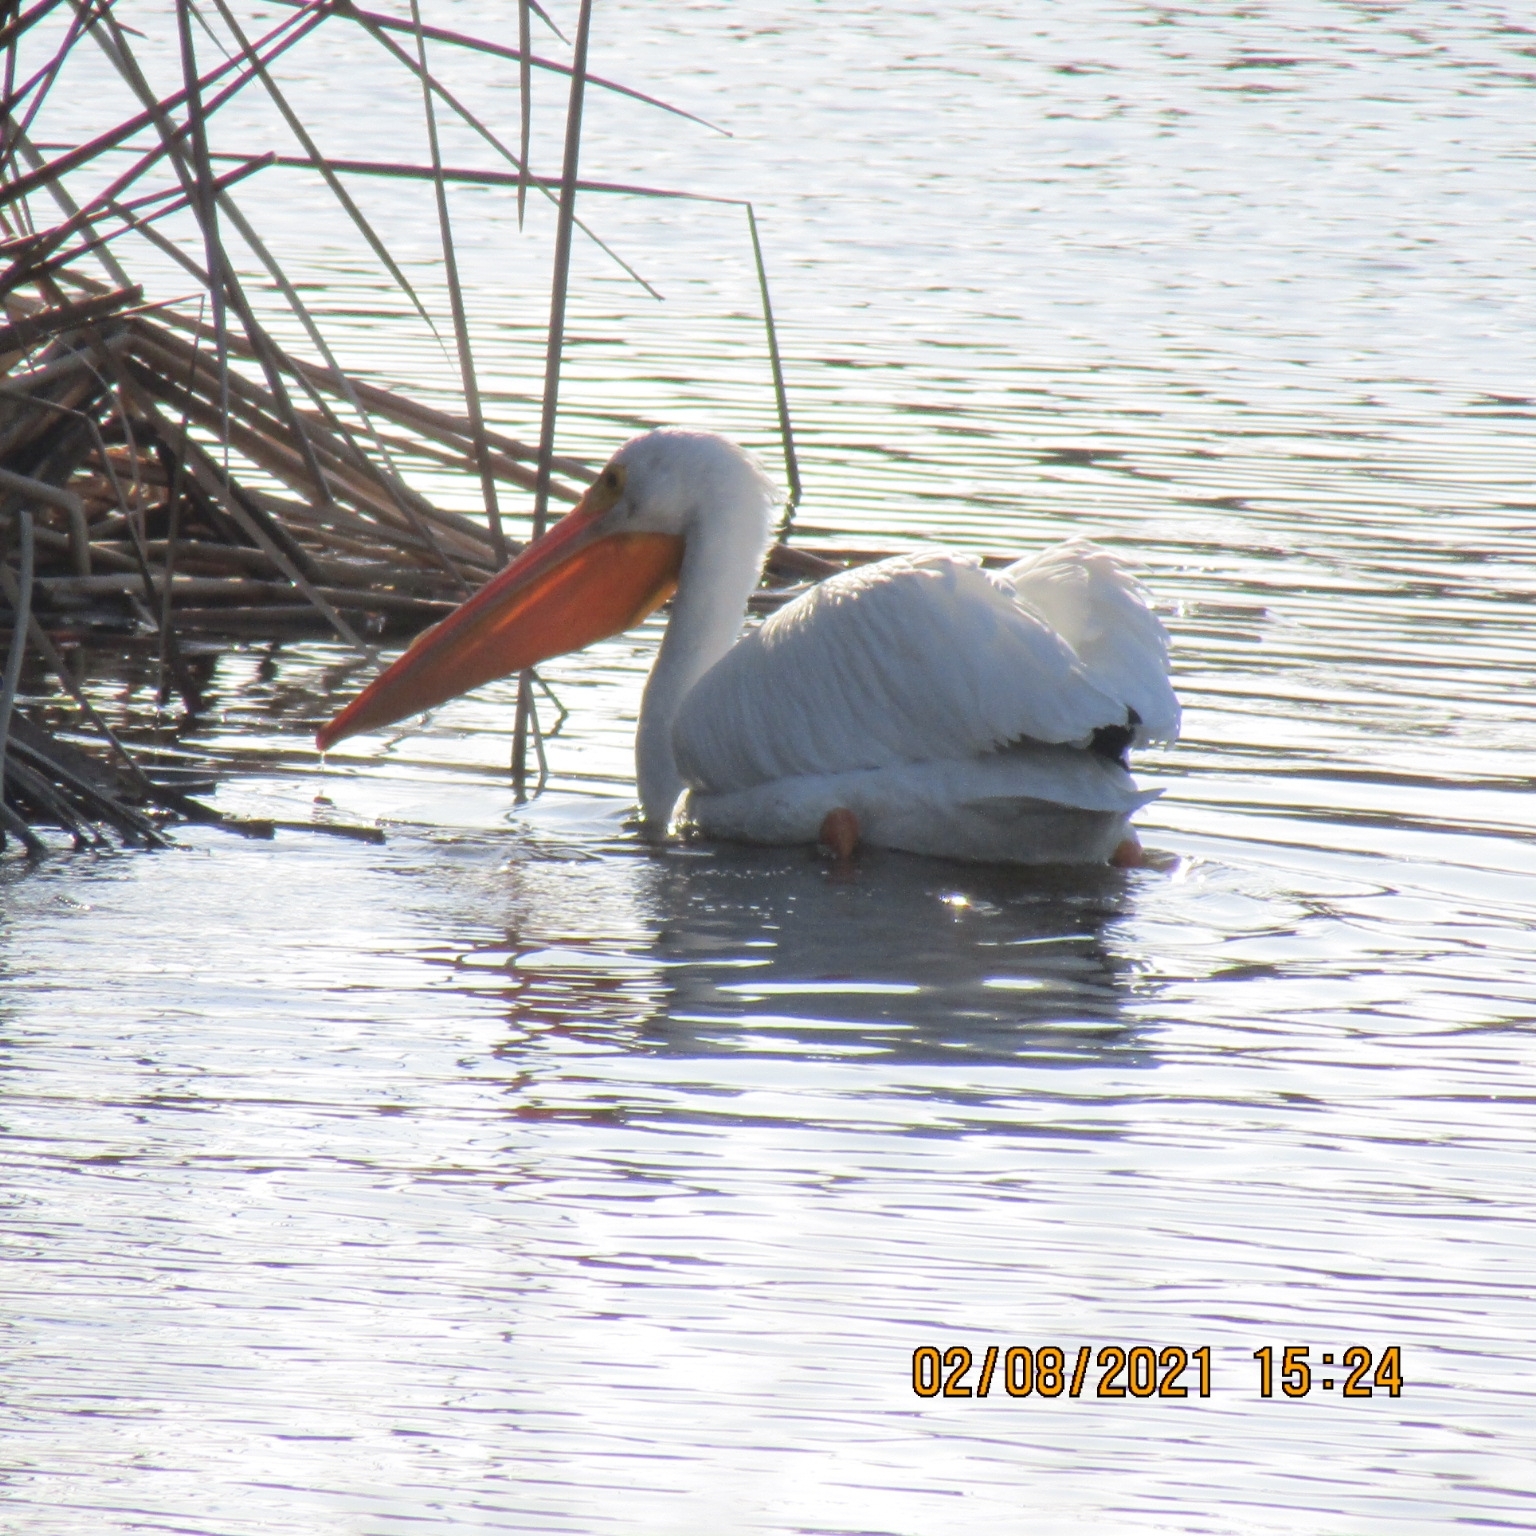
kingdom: Animalia
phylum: Chordata
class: Aves
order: Pelecaniformes
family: Pelecanidae
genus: Pelecanus
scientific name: Pelecanus erythrorhynchos
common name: American white pelican
